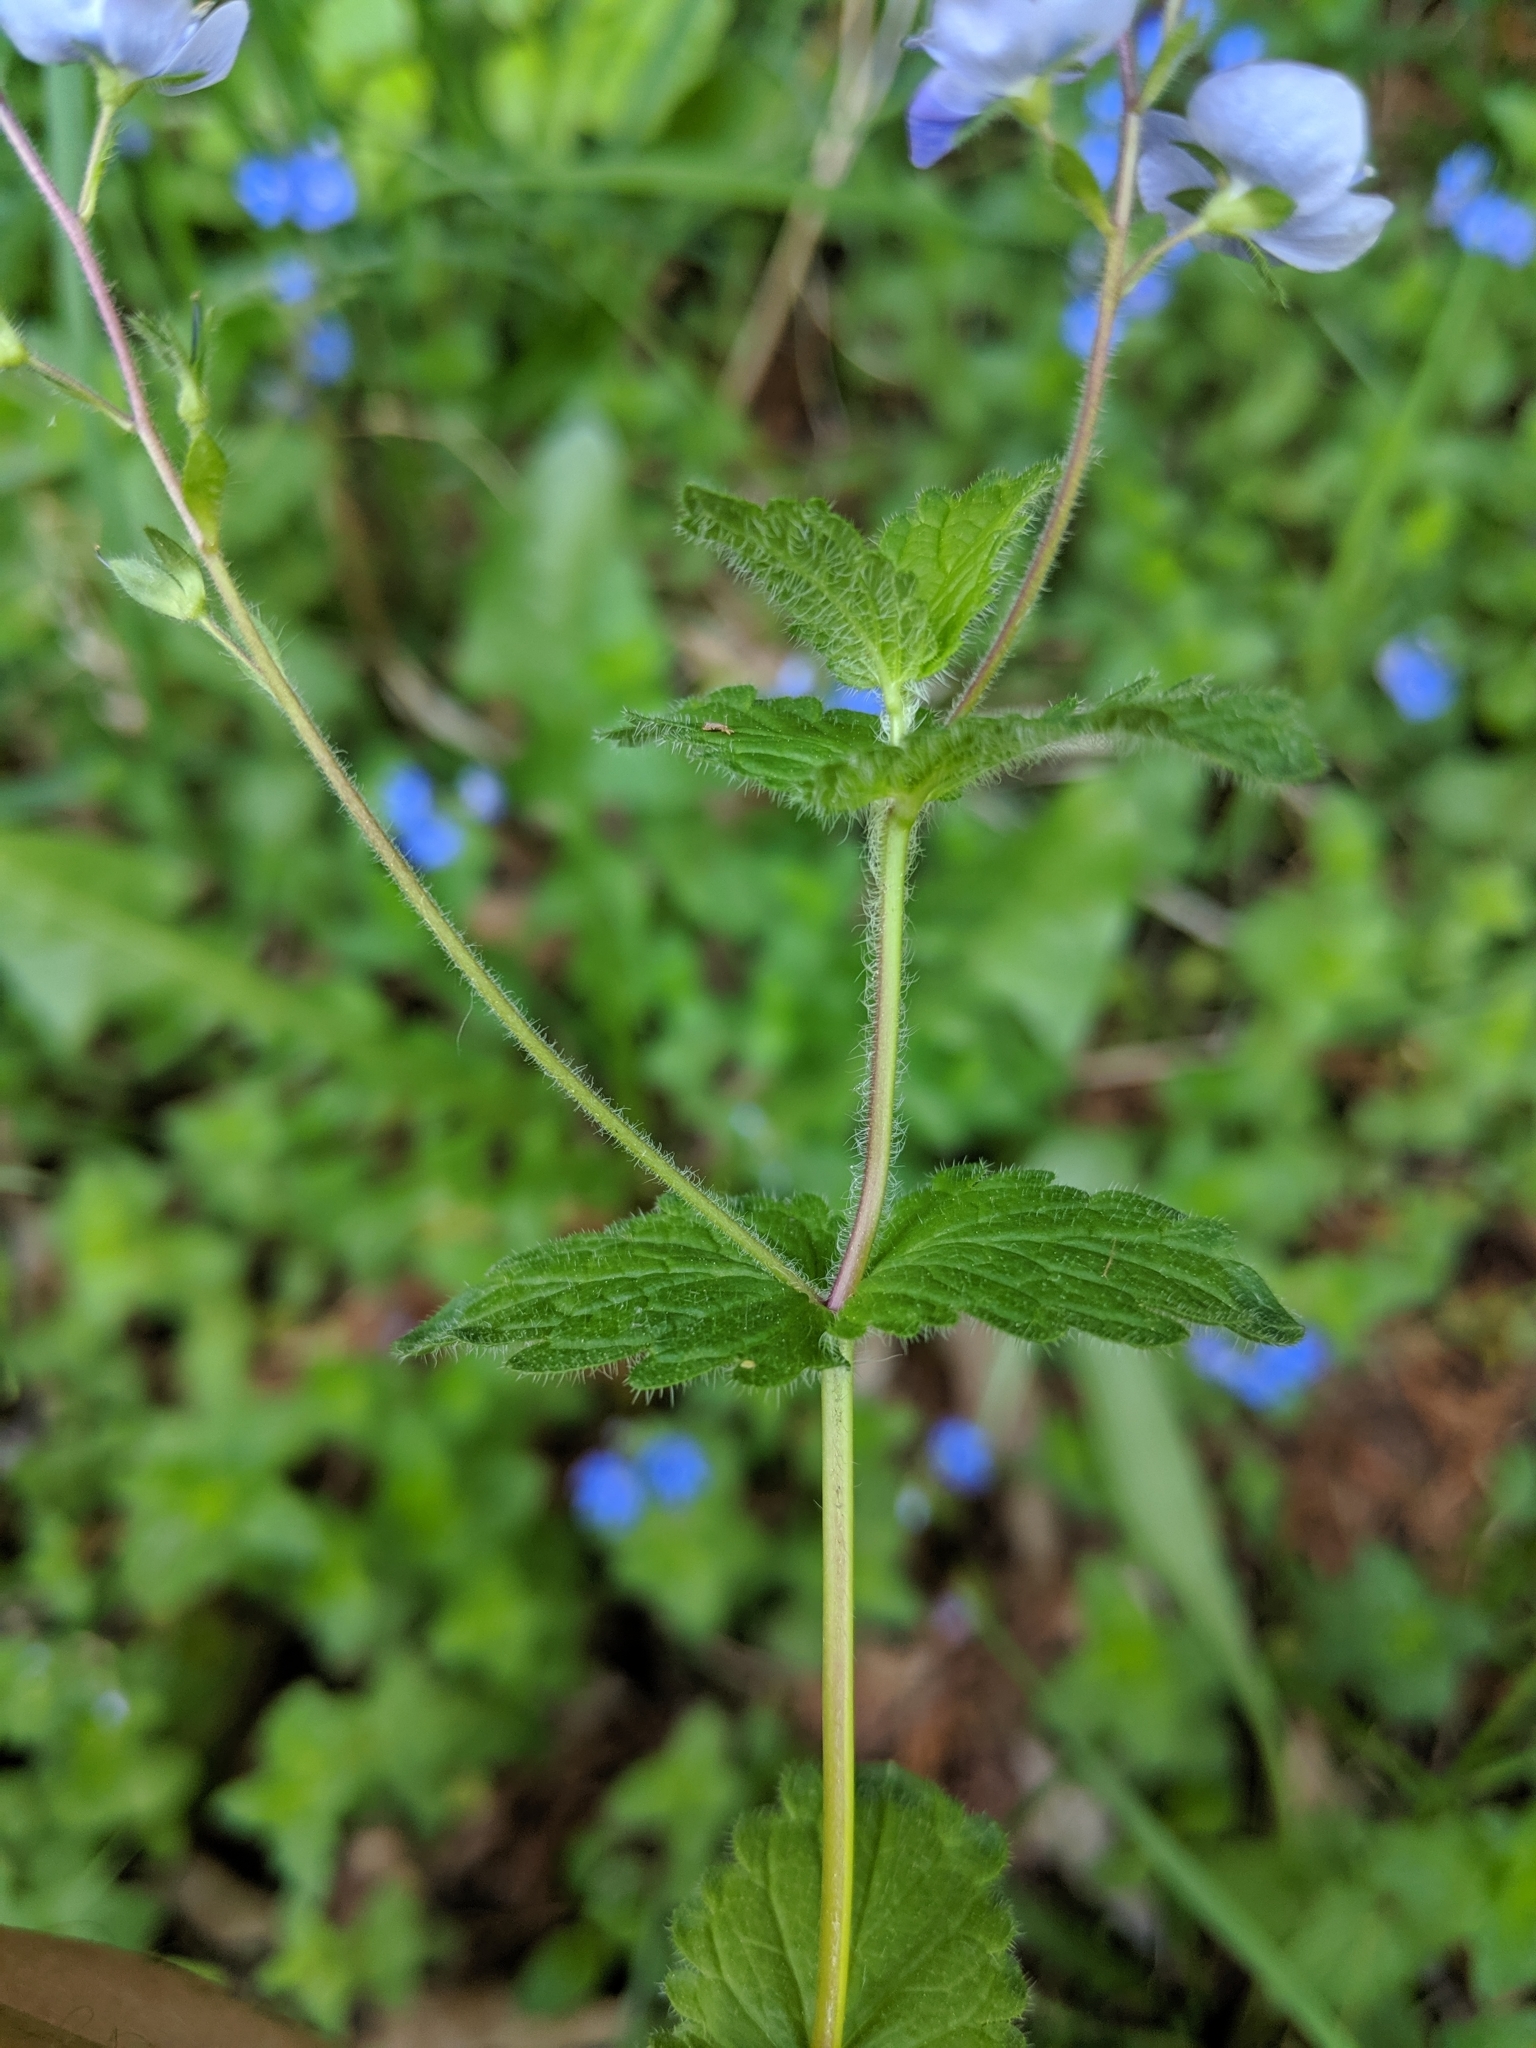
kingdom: Plantae
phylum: Tracheophyta
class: Magnoliopsida
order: Lamiales
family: Plantaginaceae
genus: Veronica
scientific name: Veronica chamaedrys
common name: Germander speedwell
